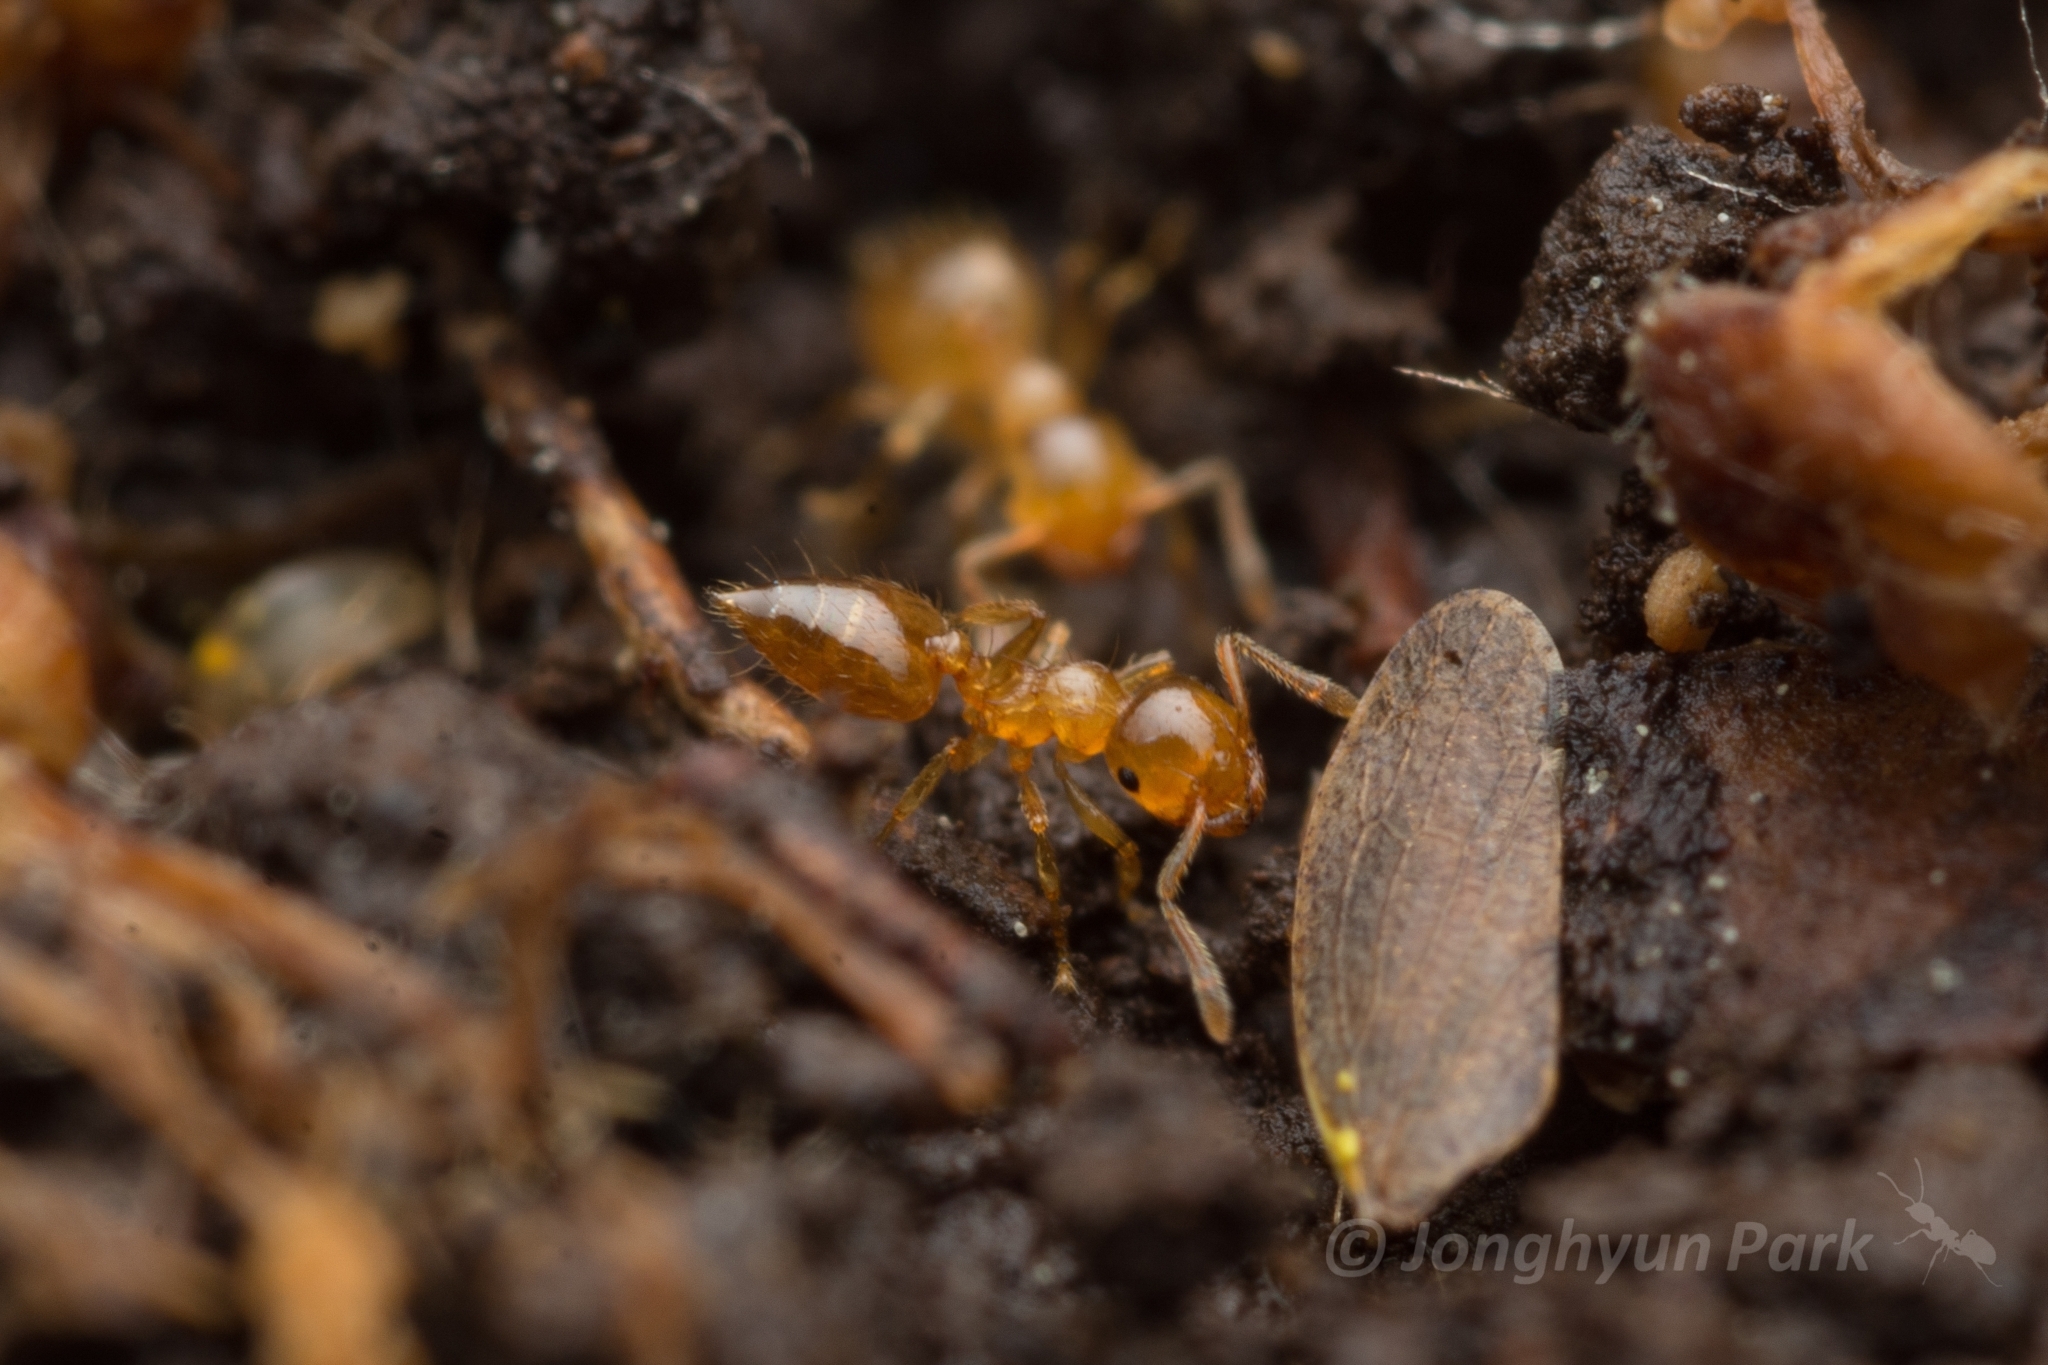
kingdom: Animalia
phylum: Arthropoda
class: Insecta
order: Hymenoptera
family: Formicidae
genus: Crematogaster
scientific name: Crematogaster osakensis
